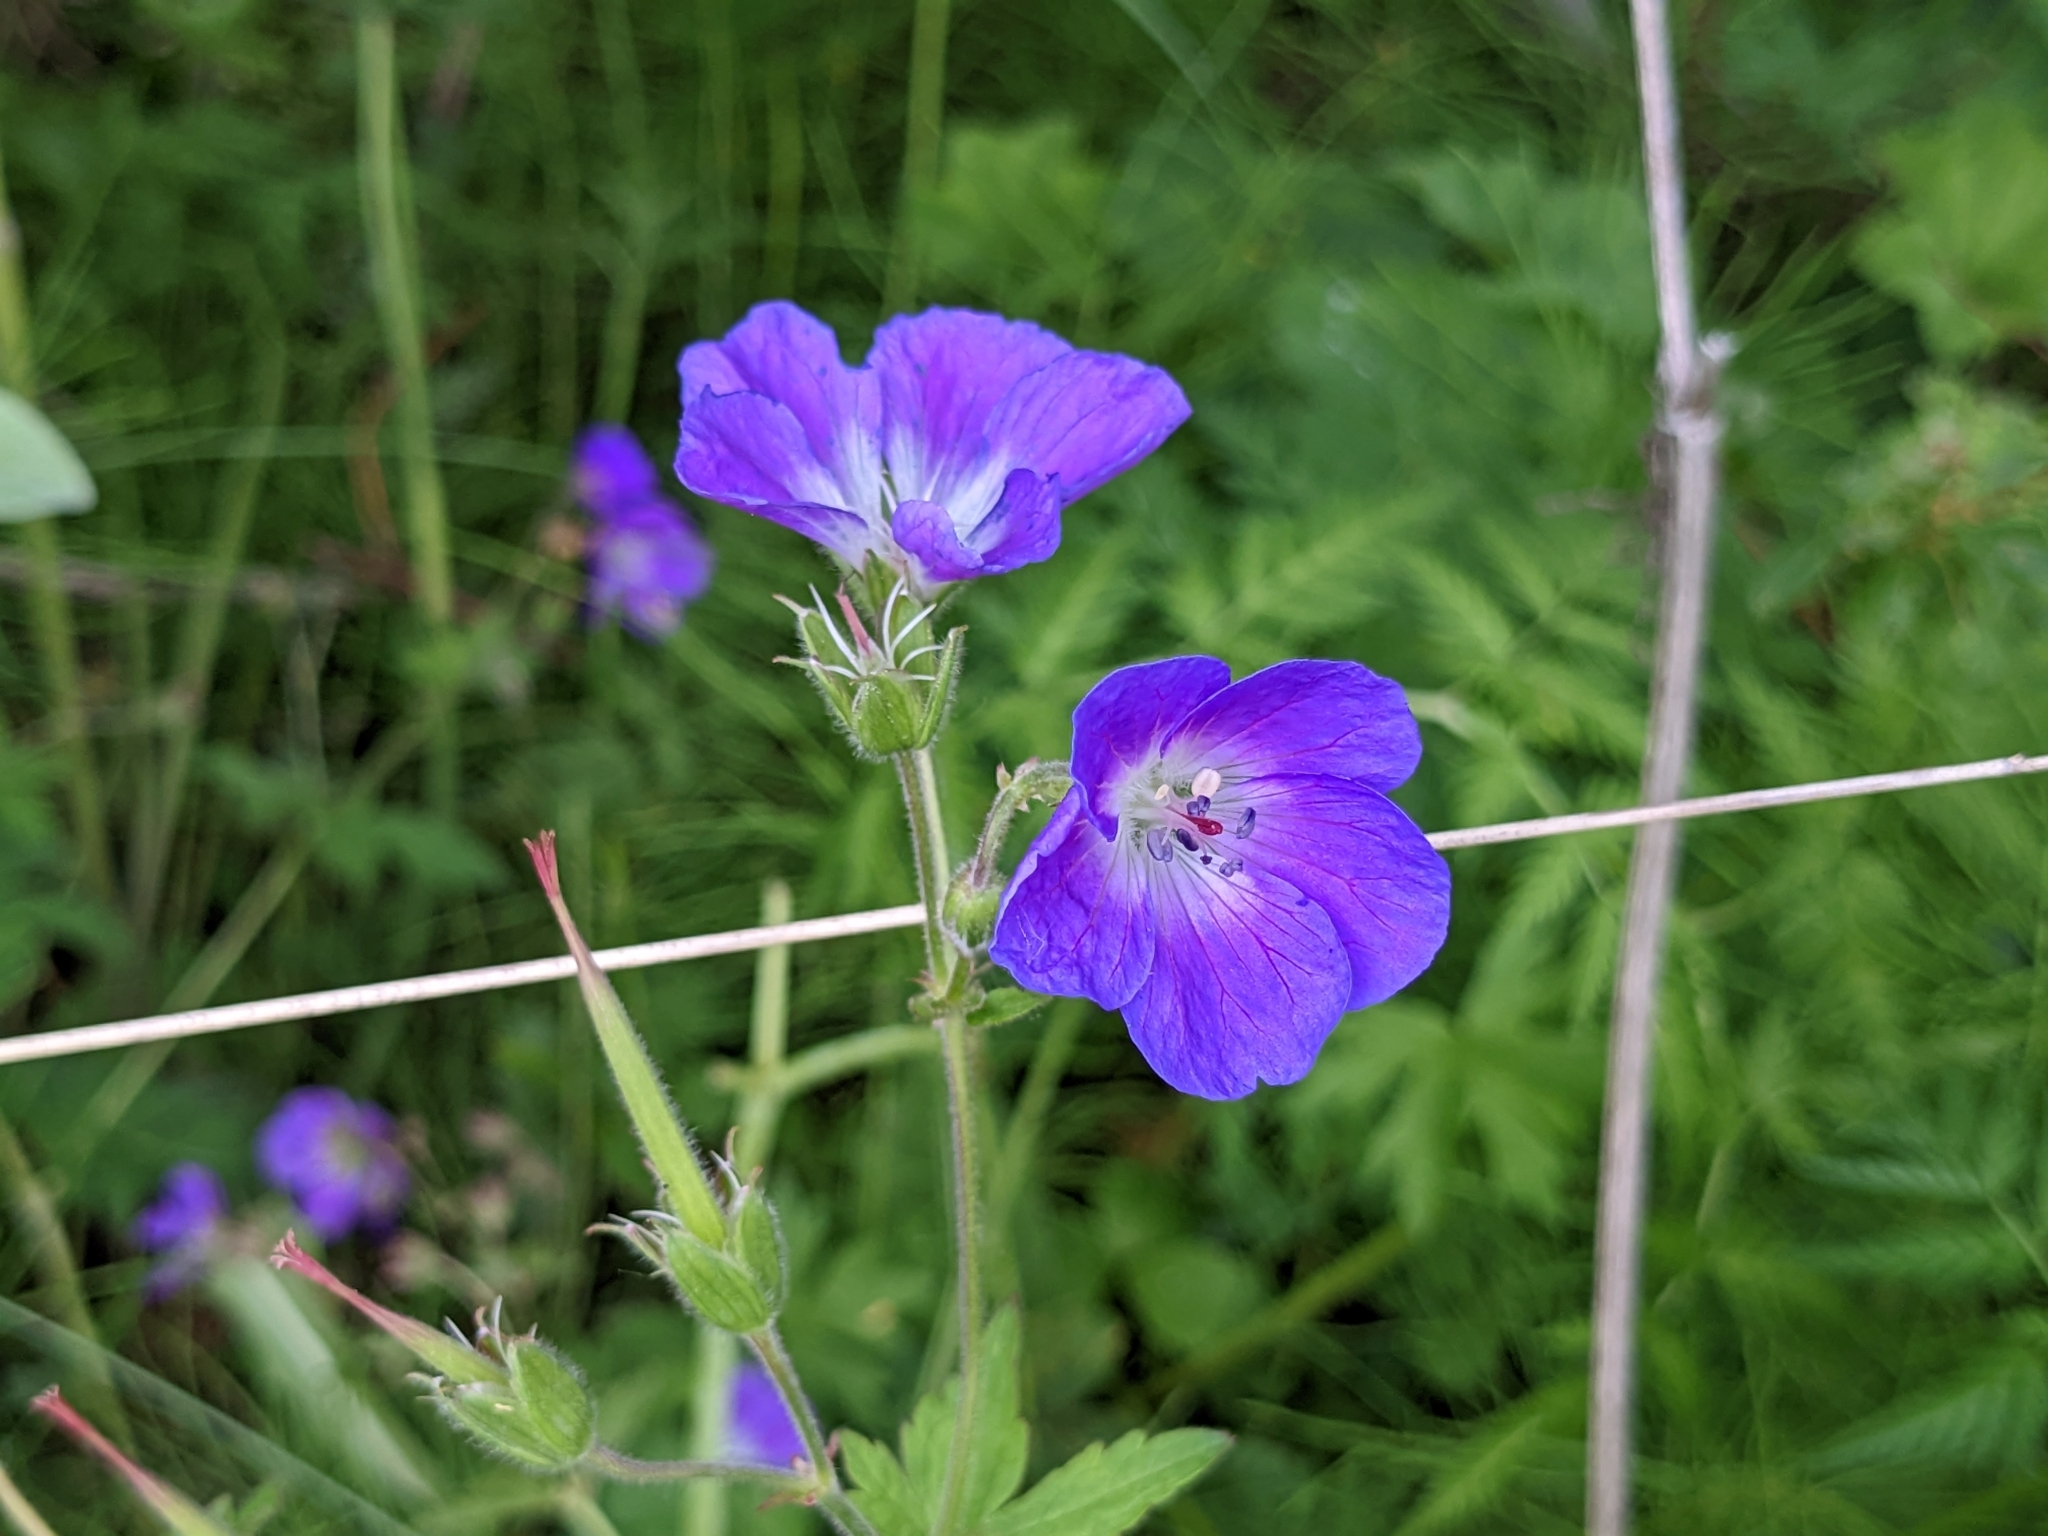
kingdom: Plantae
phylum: Tracheophyta
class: Magnoliopsida
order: Geraniales
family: Geraniaceae
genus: Geranium
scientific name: Geranium sylvaticum
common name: Wood crane's-bill
